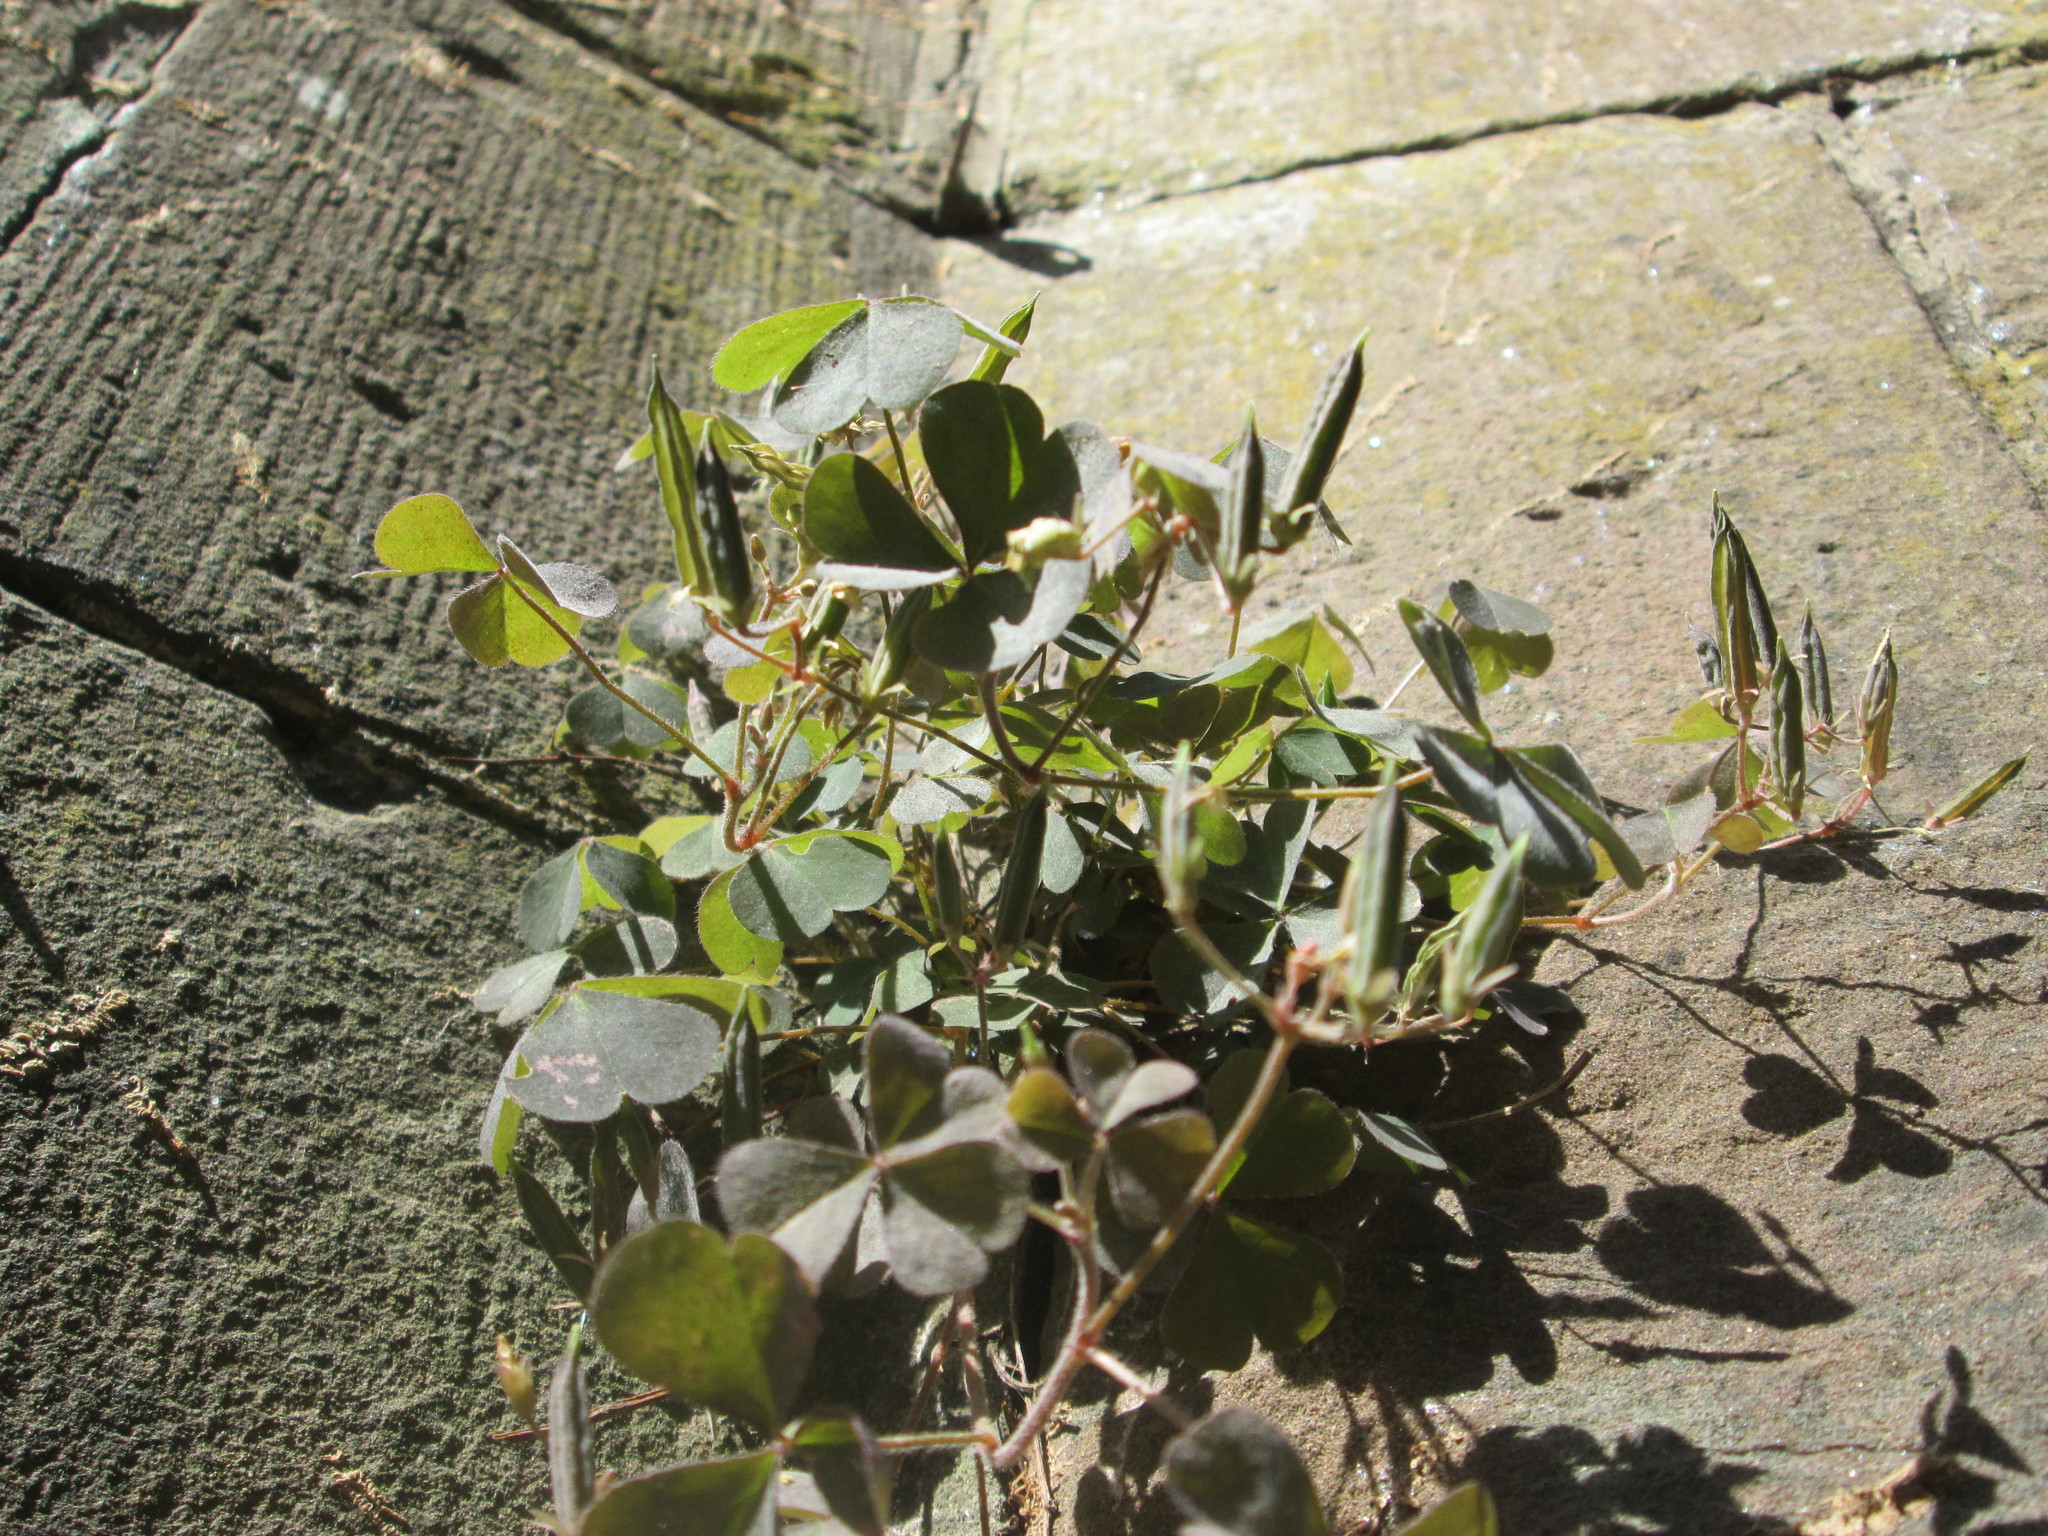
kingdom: Plantae
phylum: Tracheophyta
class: Magnoliopsida
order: Oxalidales
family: Oxalidaceae
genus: Oxalis
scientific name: Oxalis corniculata
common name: Procumbent yellow-sorrel
